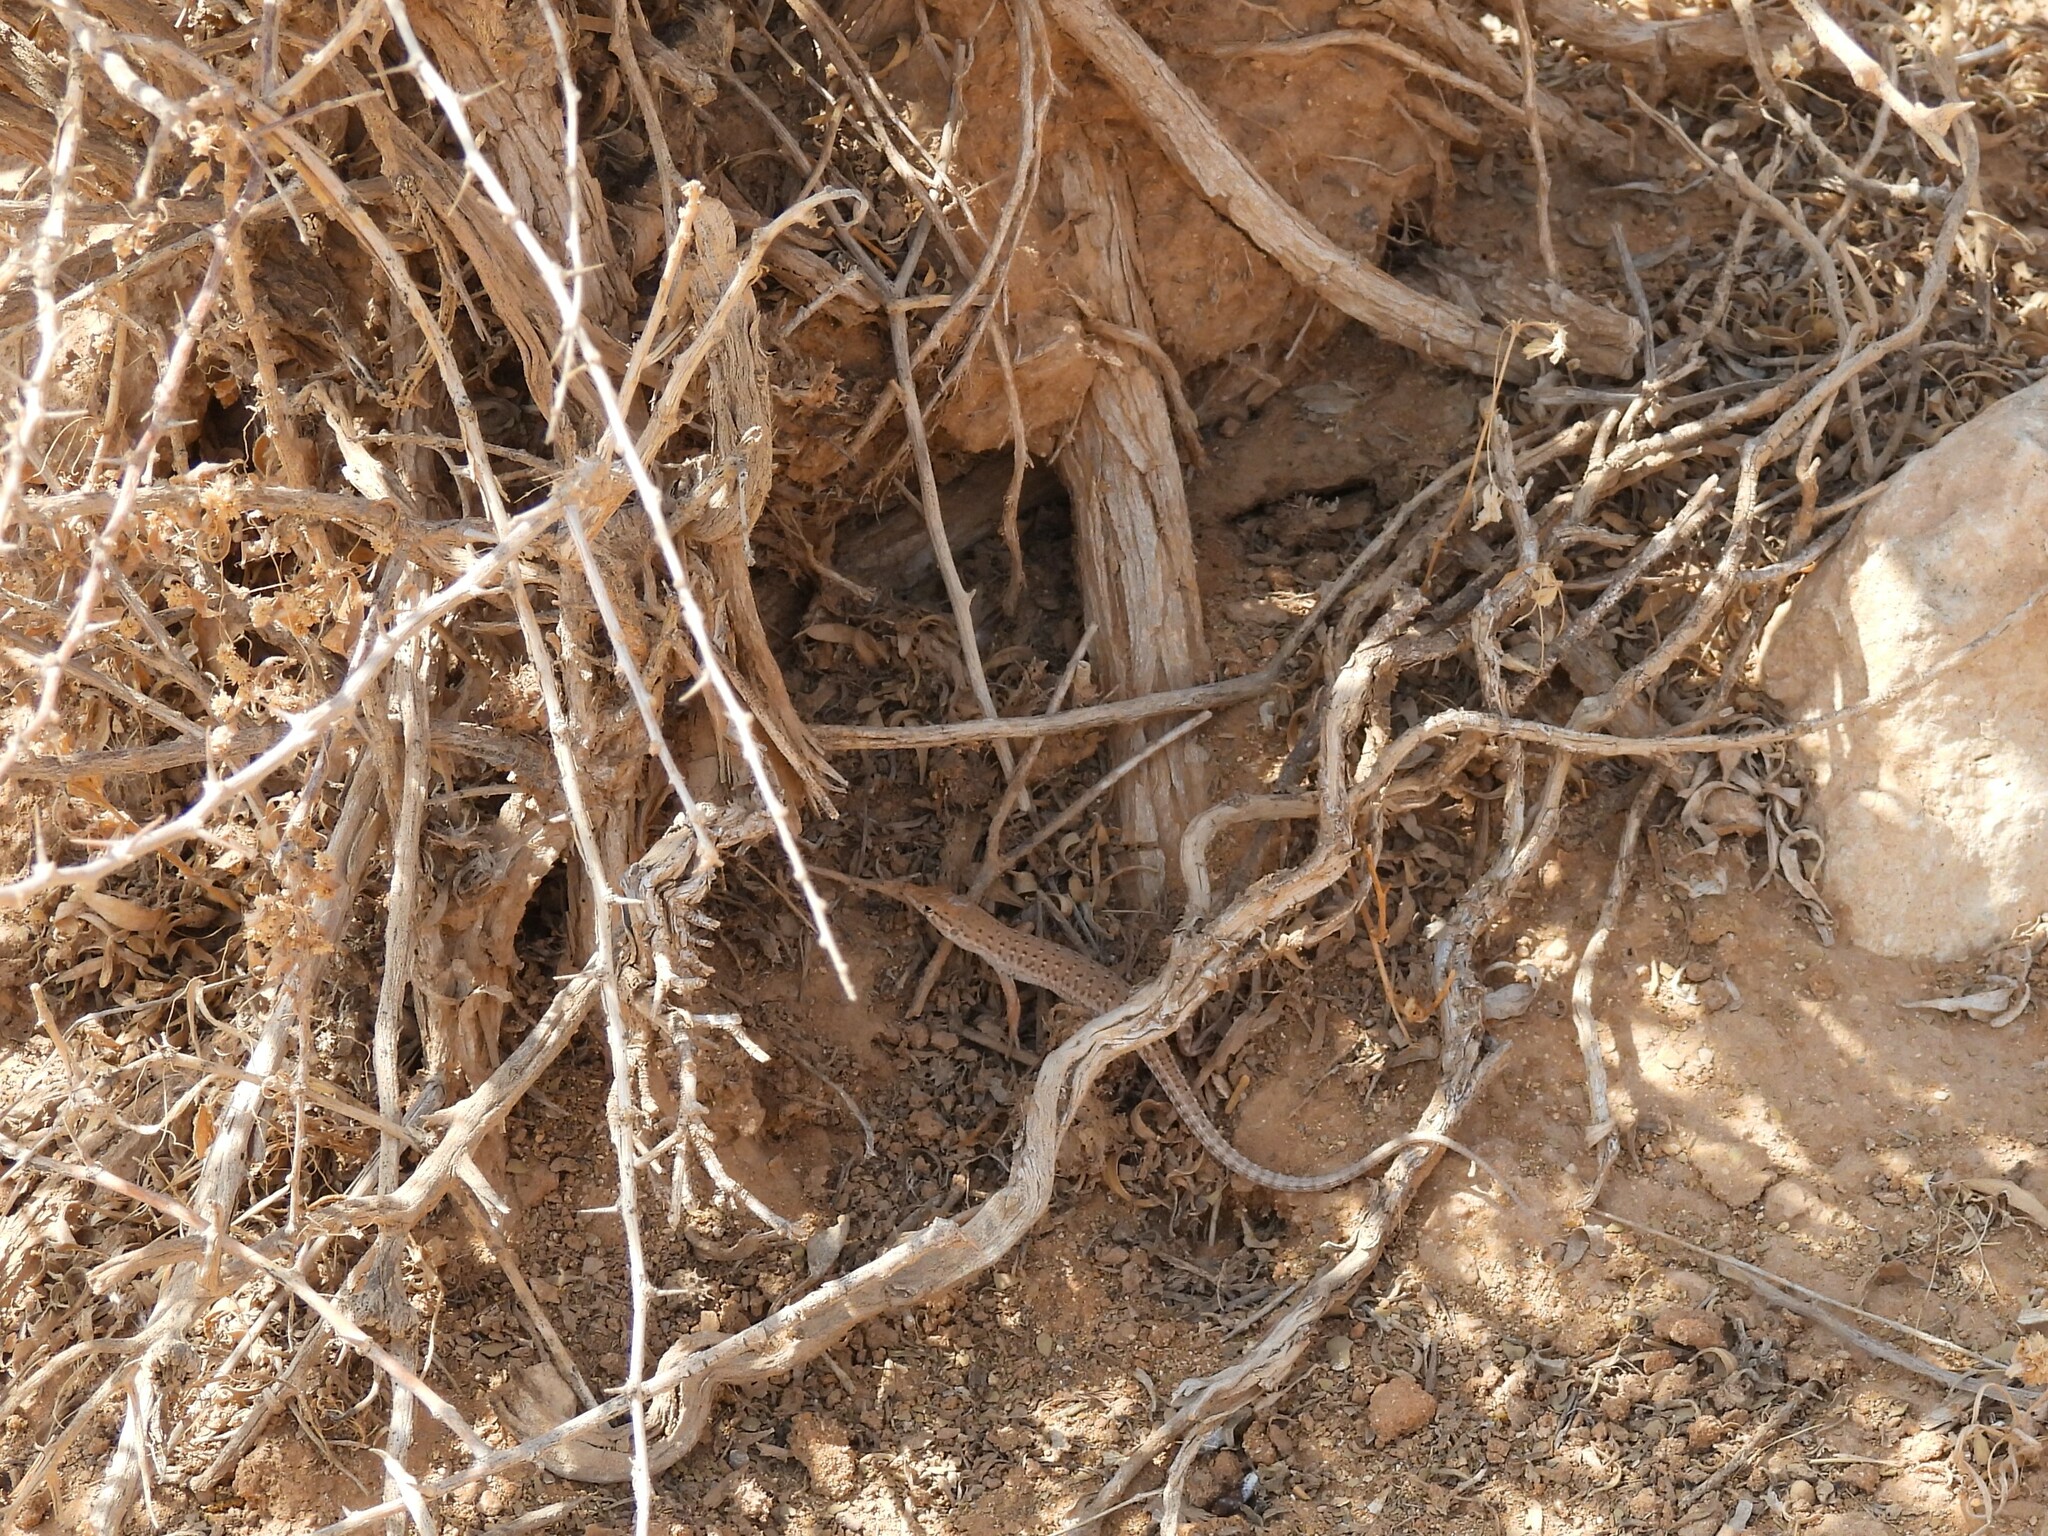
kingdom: Animalia
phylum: Chordata
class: Squamata
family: Lacertidae
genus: Mesalina
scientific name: Mesalina guttulata
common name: Desert lacerta
